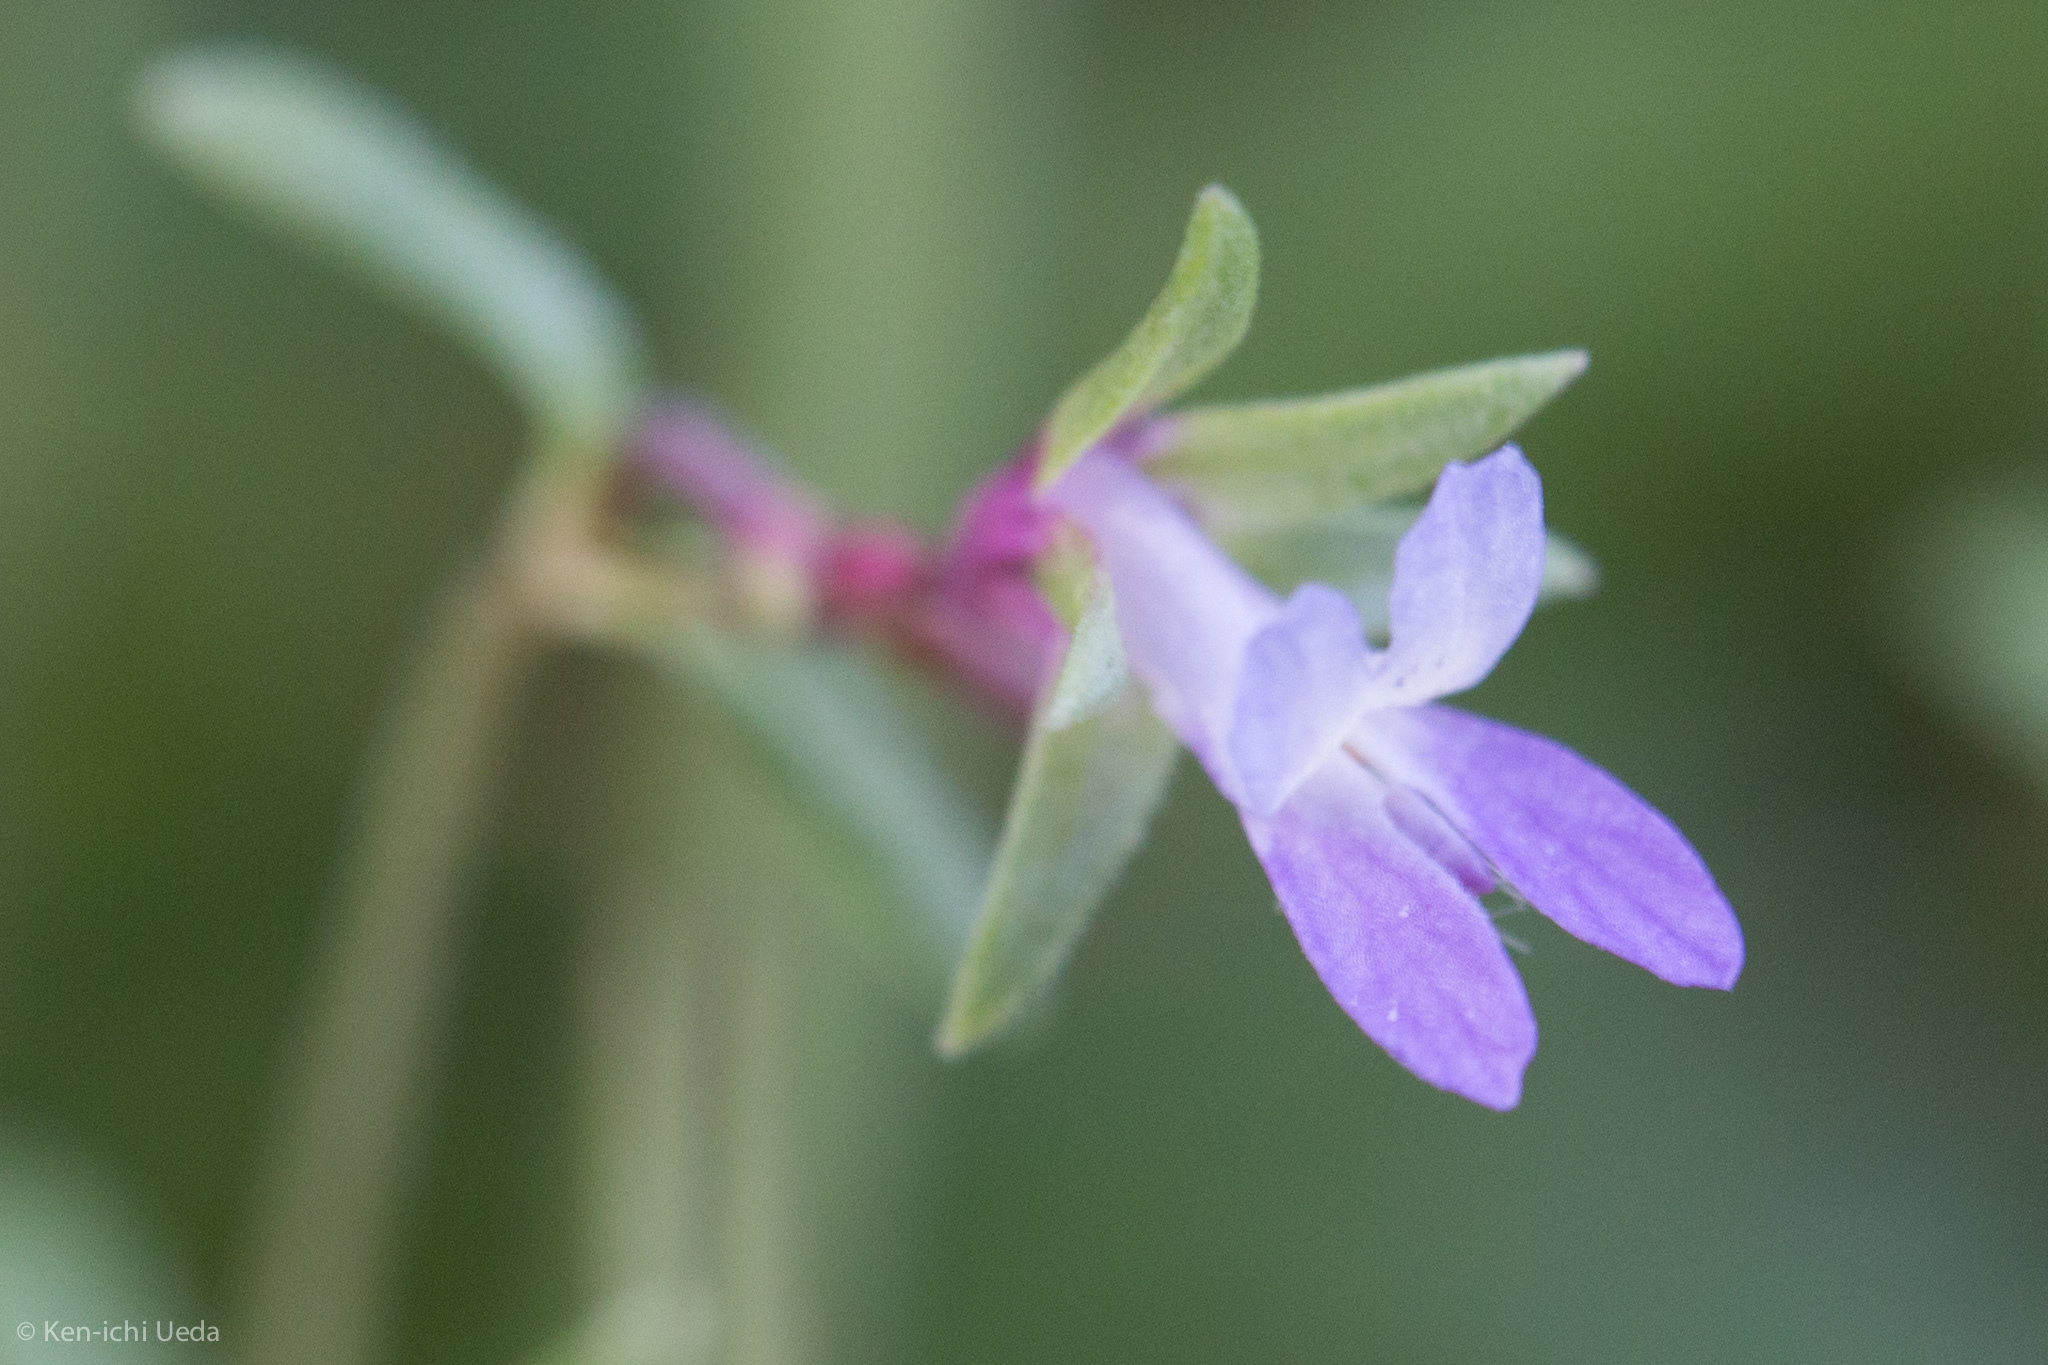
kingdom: Plantae
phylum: Tracheophyta
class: Magnoliopsida
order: Lamiales
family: Plantaginaceae
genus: Collinsia
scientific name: Collinsia sparsiflora
